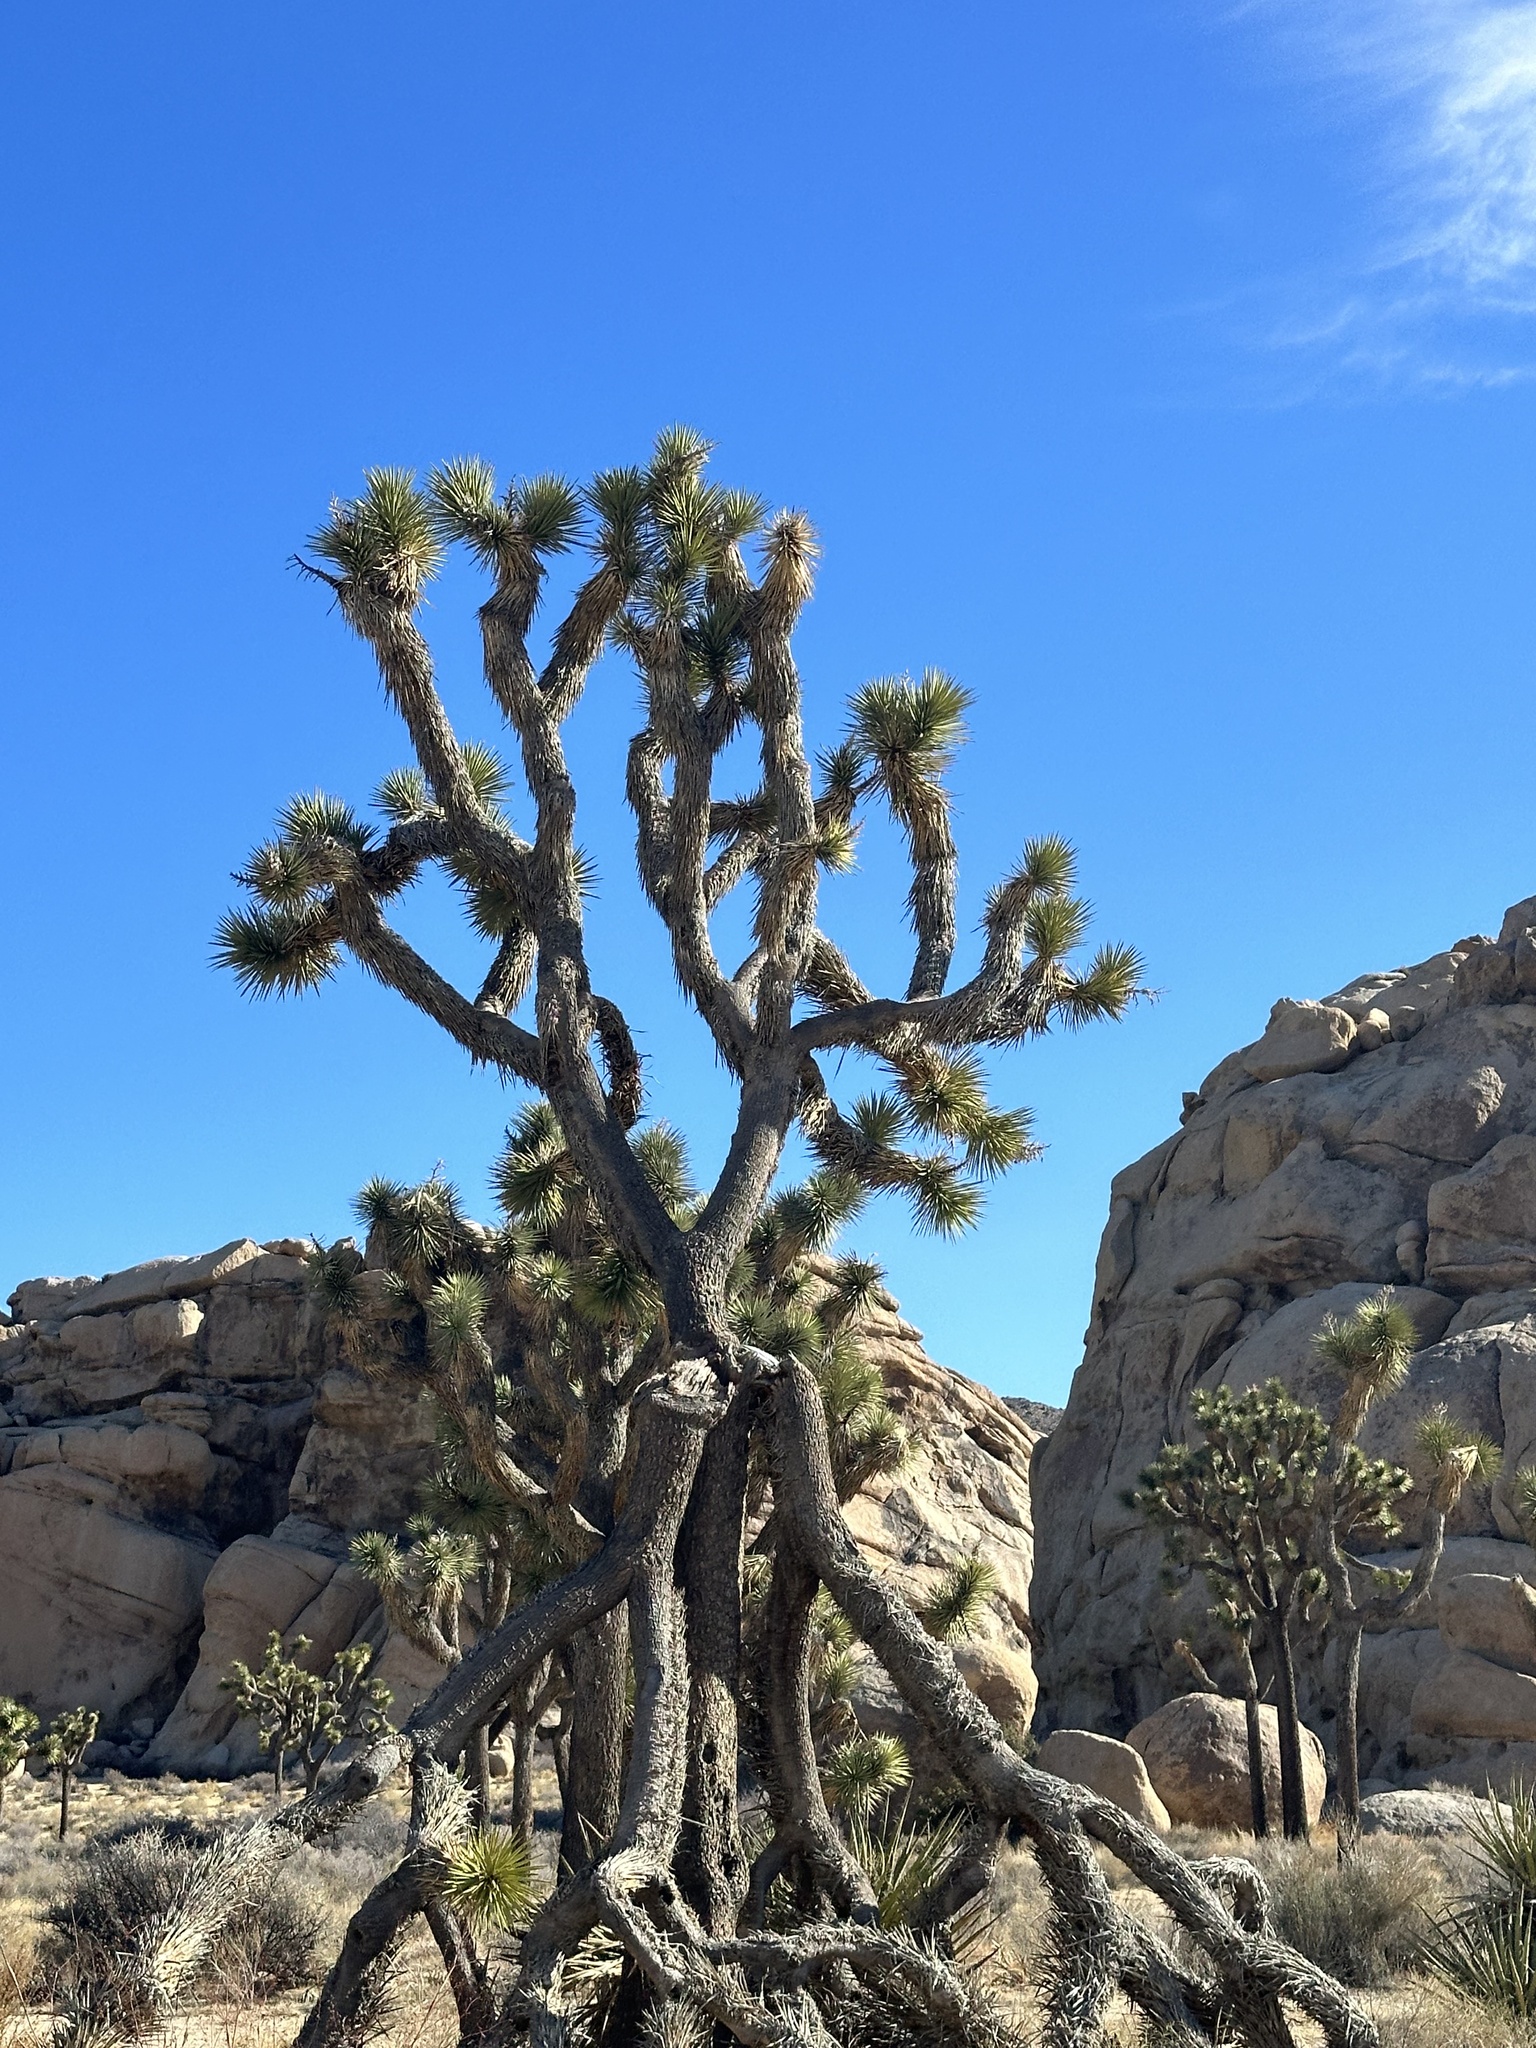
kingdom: Plantae
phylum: Tracheophyta
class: Liliopsida
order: Asparagales
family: Asparagaceae
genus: Yucca
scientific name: Yucca brevifolia
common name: Joshua tree
